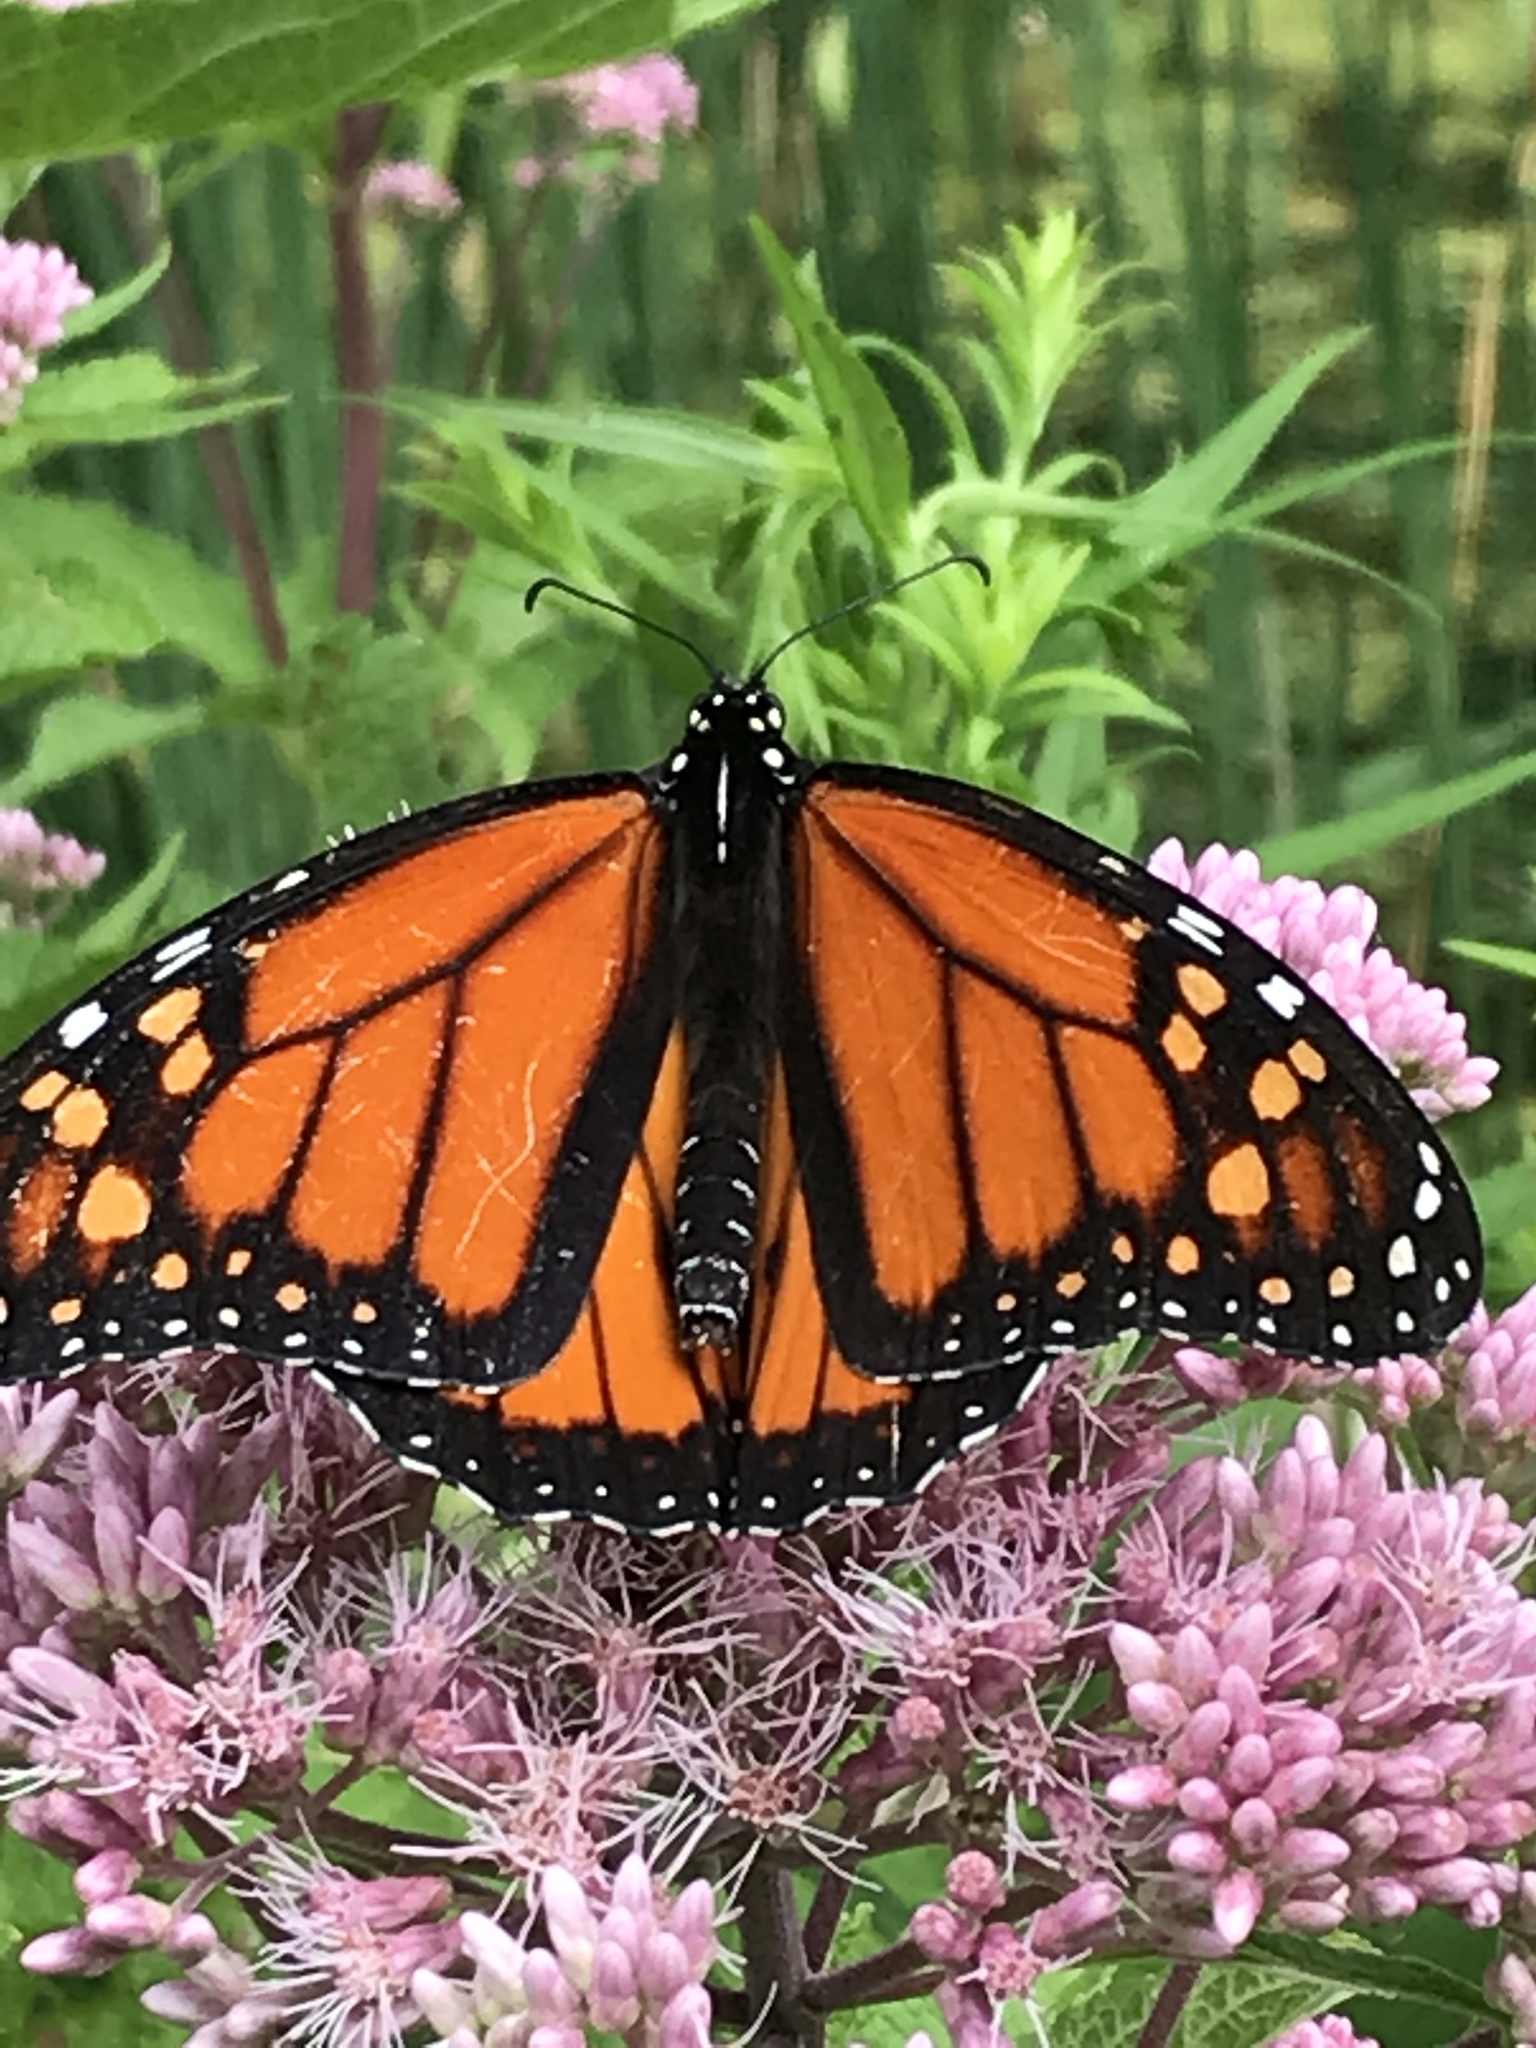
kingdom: Animalia
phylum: Arthropoda
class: Insecta
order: Lepidoptera
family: Nymphalidae
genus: Danaus
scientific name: Danaus plexippus
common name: Monarch
